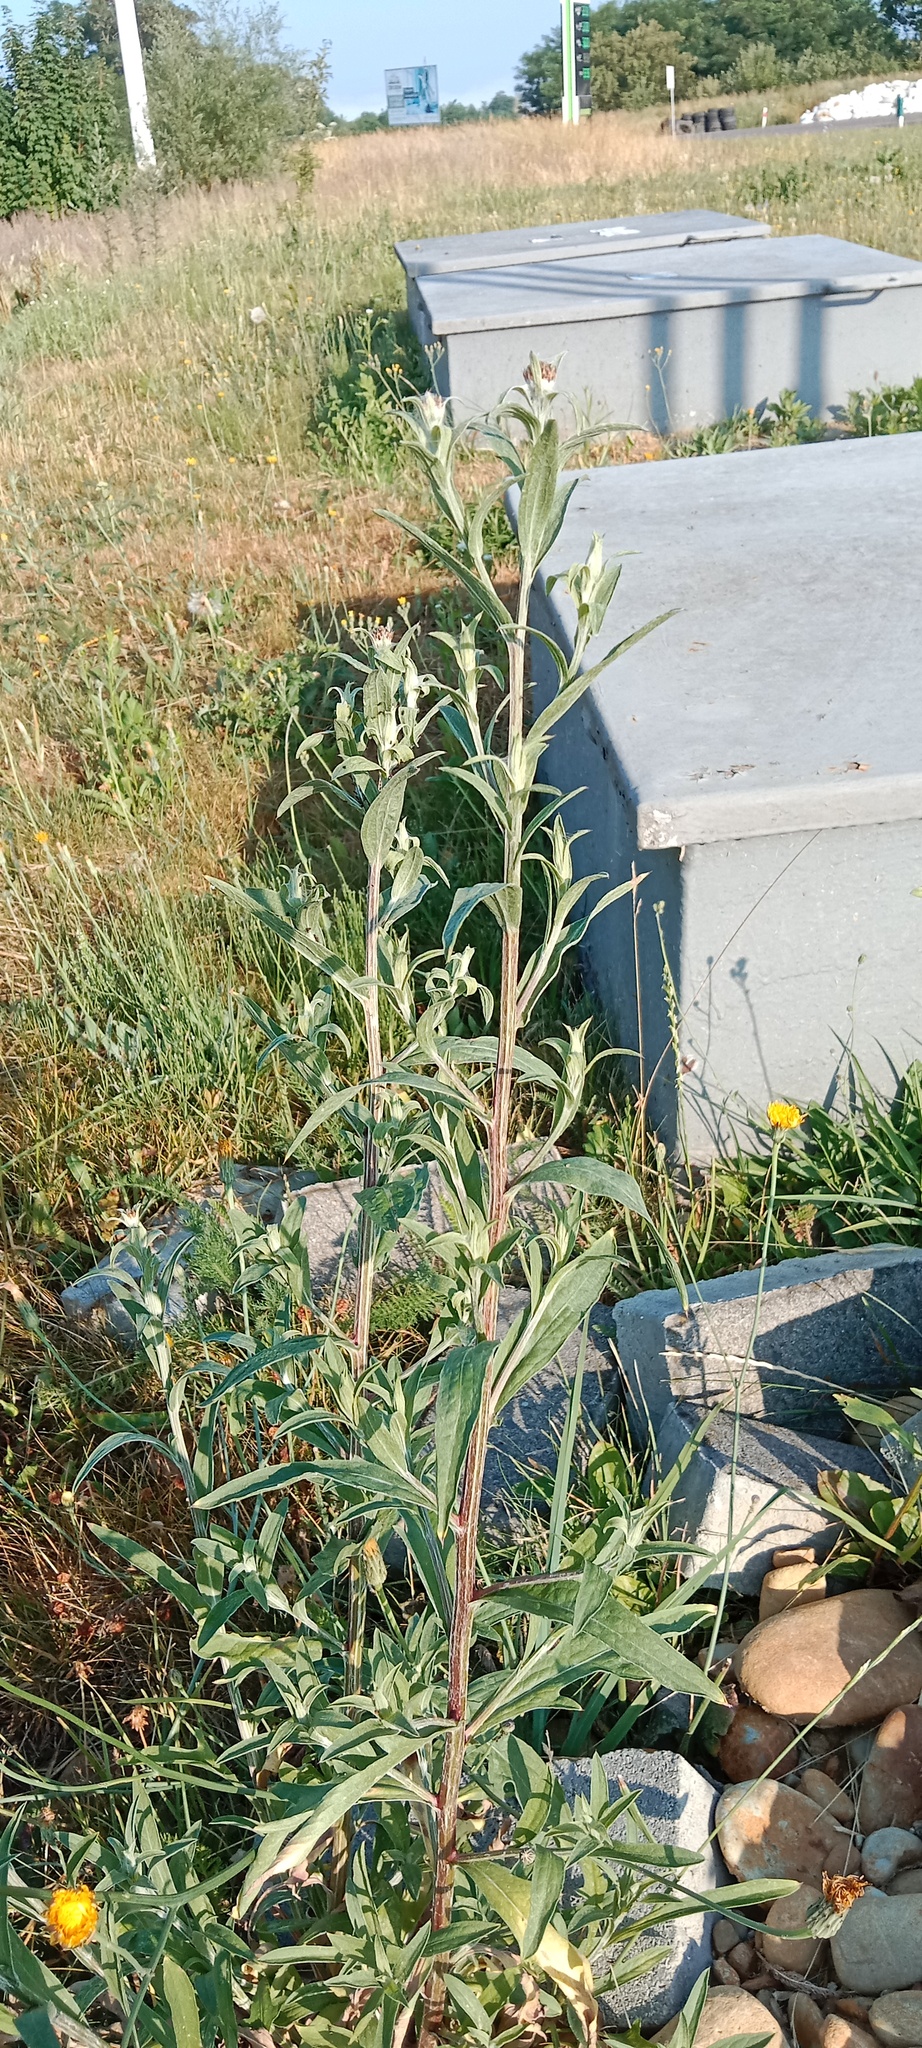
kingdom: Plantae
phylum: Tracheophyta
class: Magnoliopsida
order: Asterales
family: Asteraceae
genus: Centaurea
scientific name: Centaurea jacea
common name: Brown knapweed
